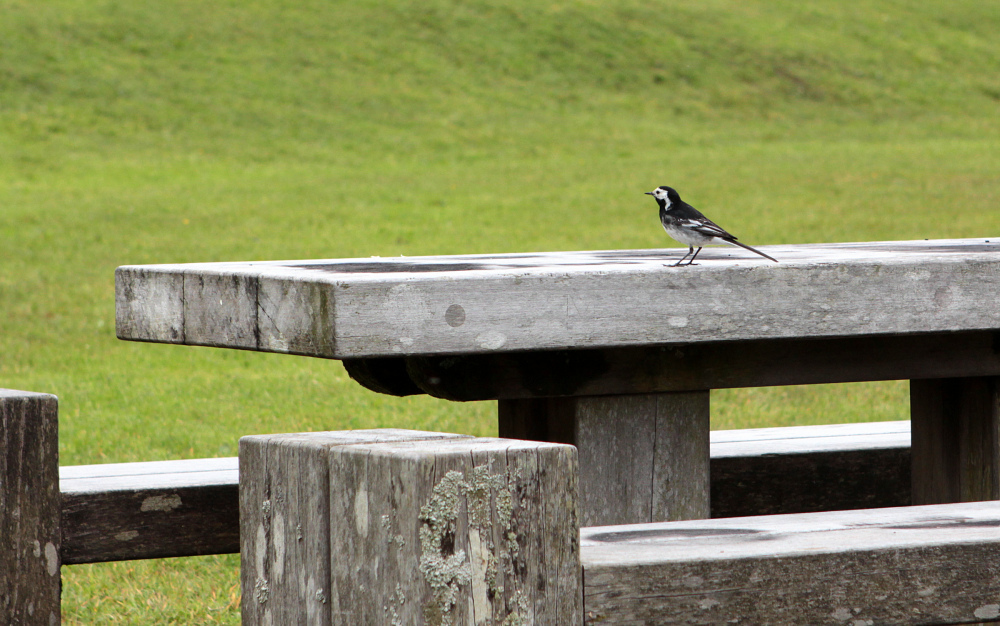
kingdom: Animalia
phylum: Chordata
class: Aves
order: Passeriformes
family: Motacillidae
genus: Motacilla
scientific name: Motacilla alba
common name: White wagtail
